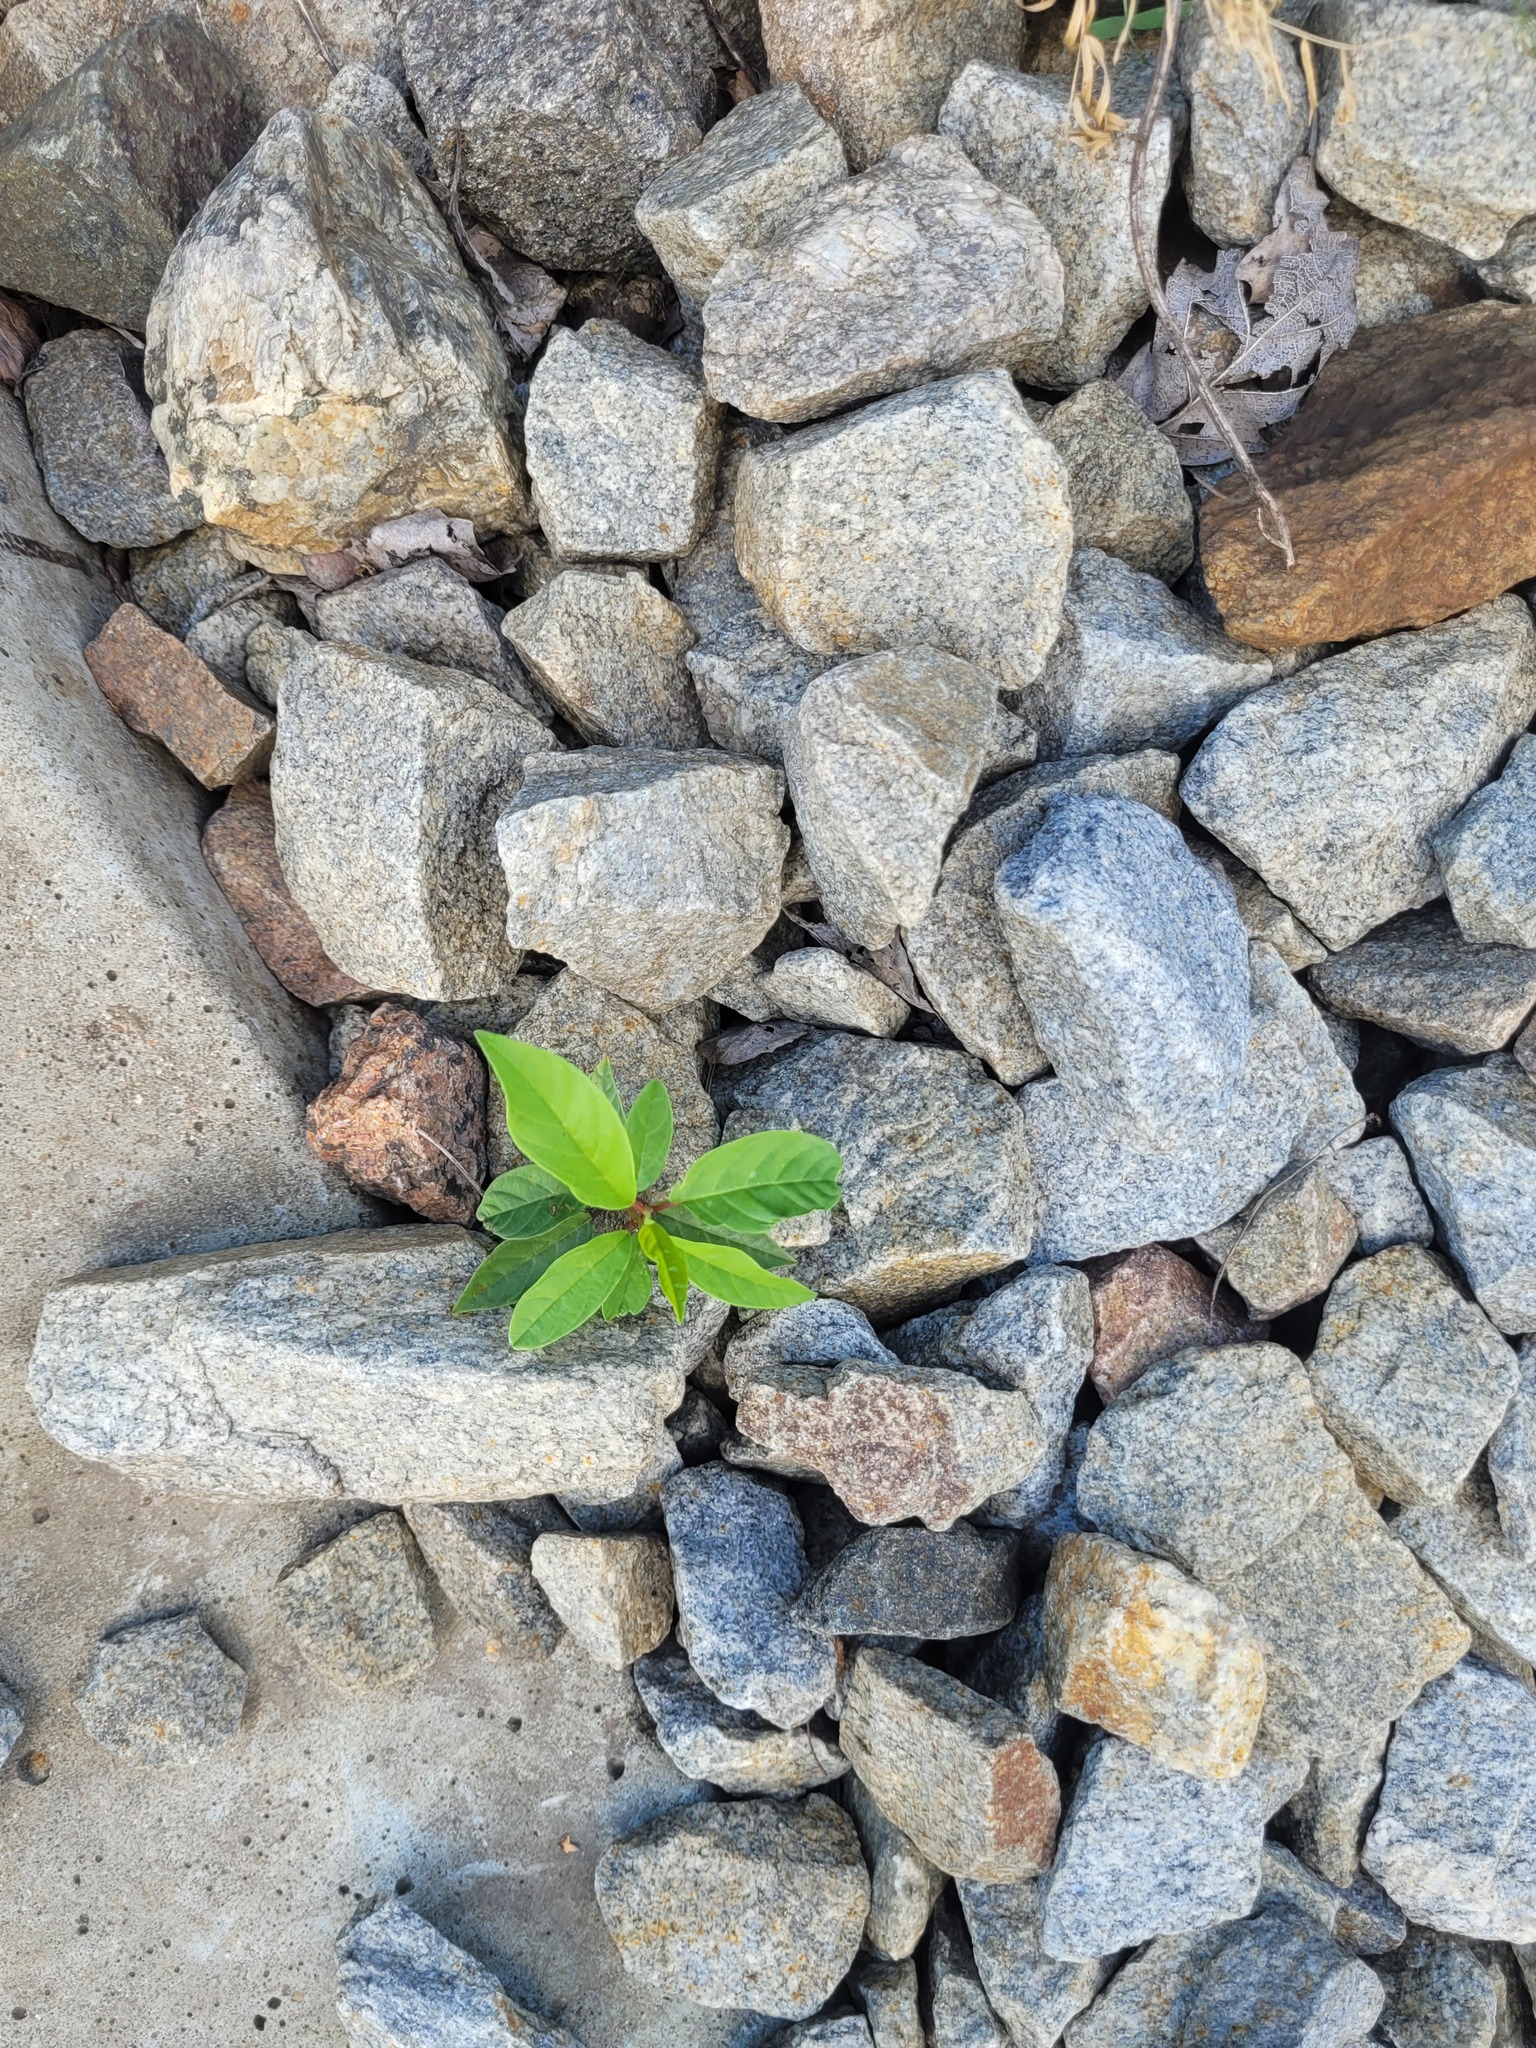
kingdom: Plantae
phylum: Tracheophyta
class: Magnoliopsida
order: Rosales
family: Rhamnaceae
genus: Frangula
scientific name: Frangula alnus
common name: Alder buckthorn
